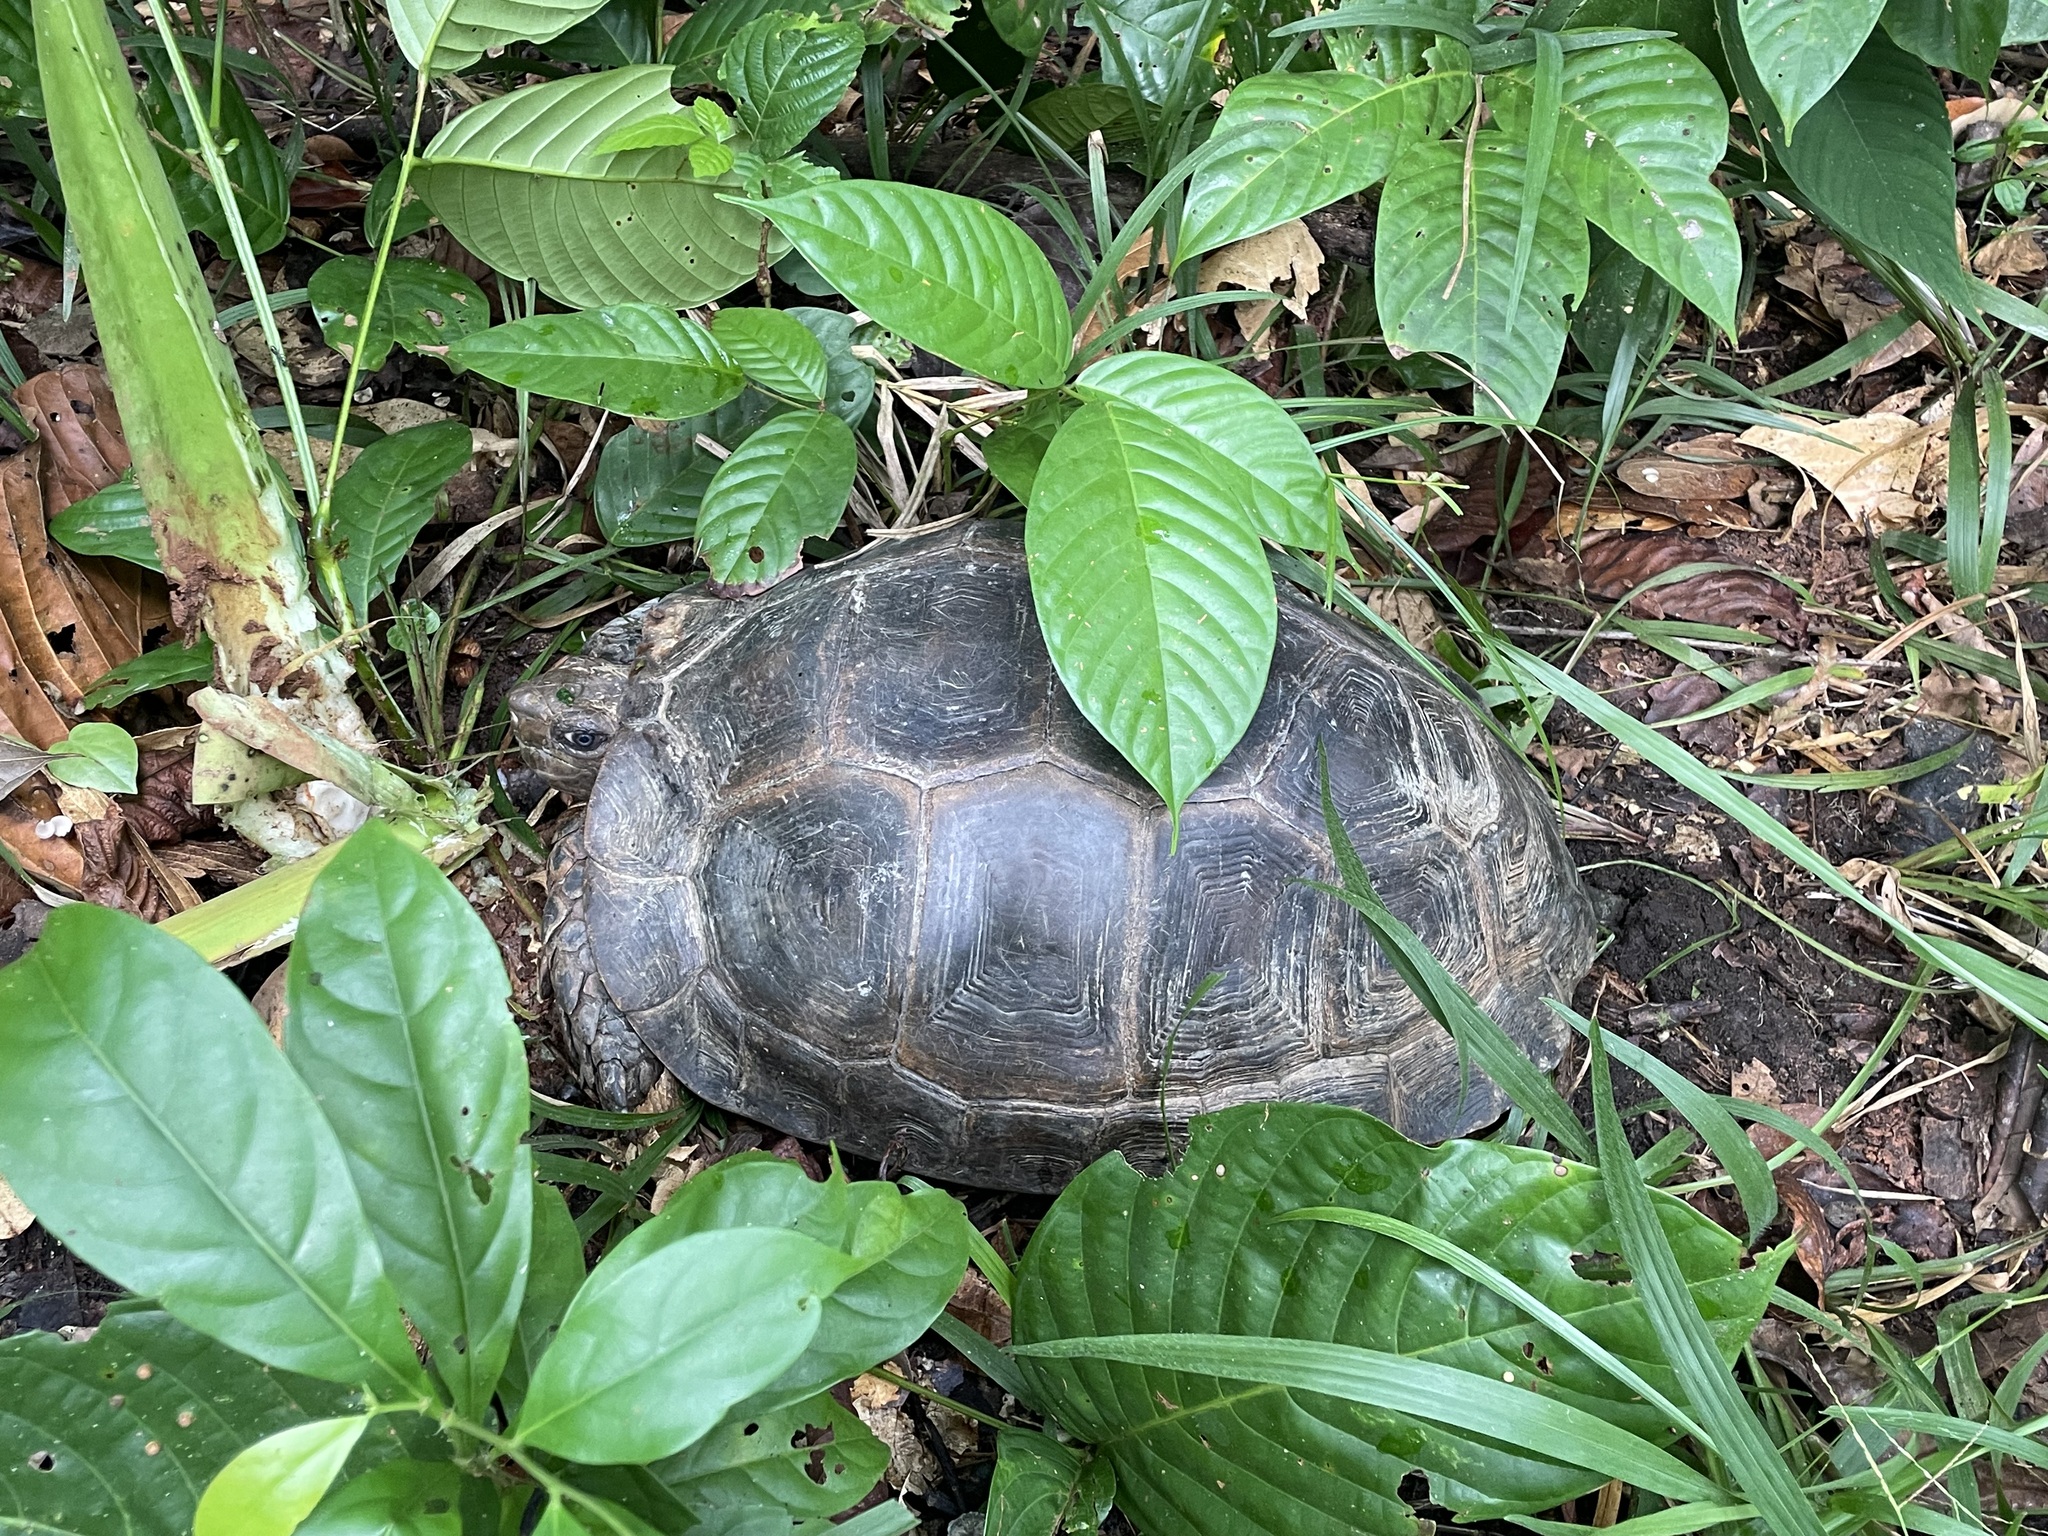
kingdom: Animalia
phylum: Chordata
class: Testudines
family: Testudinidae
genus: Manouria
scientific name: Manouria emys
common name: Asian brown tortoise
